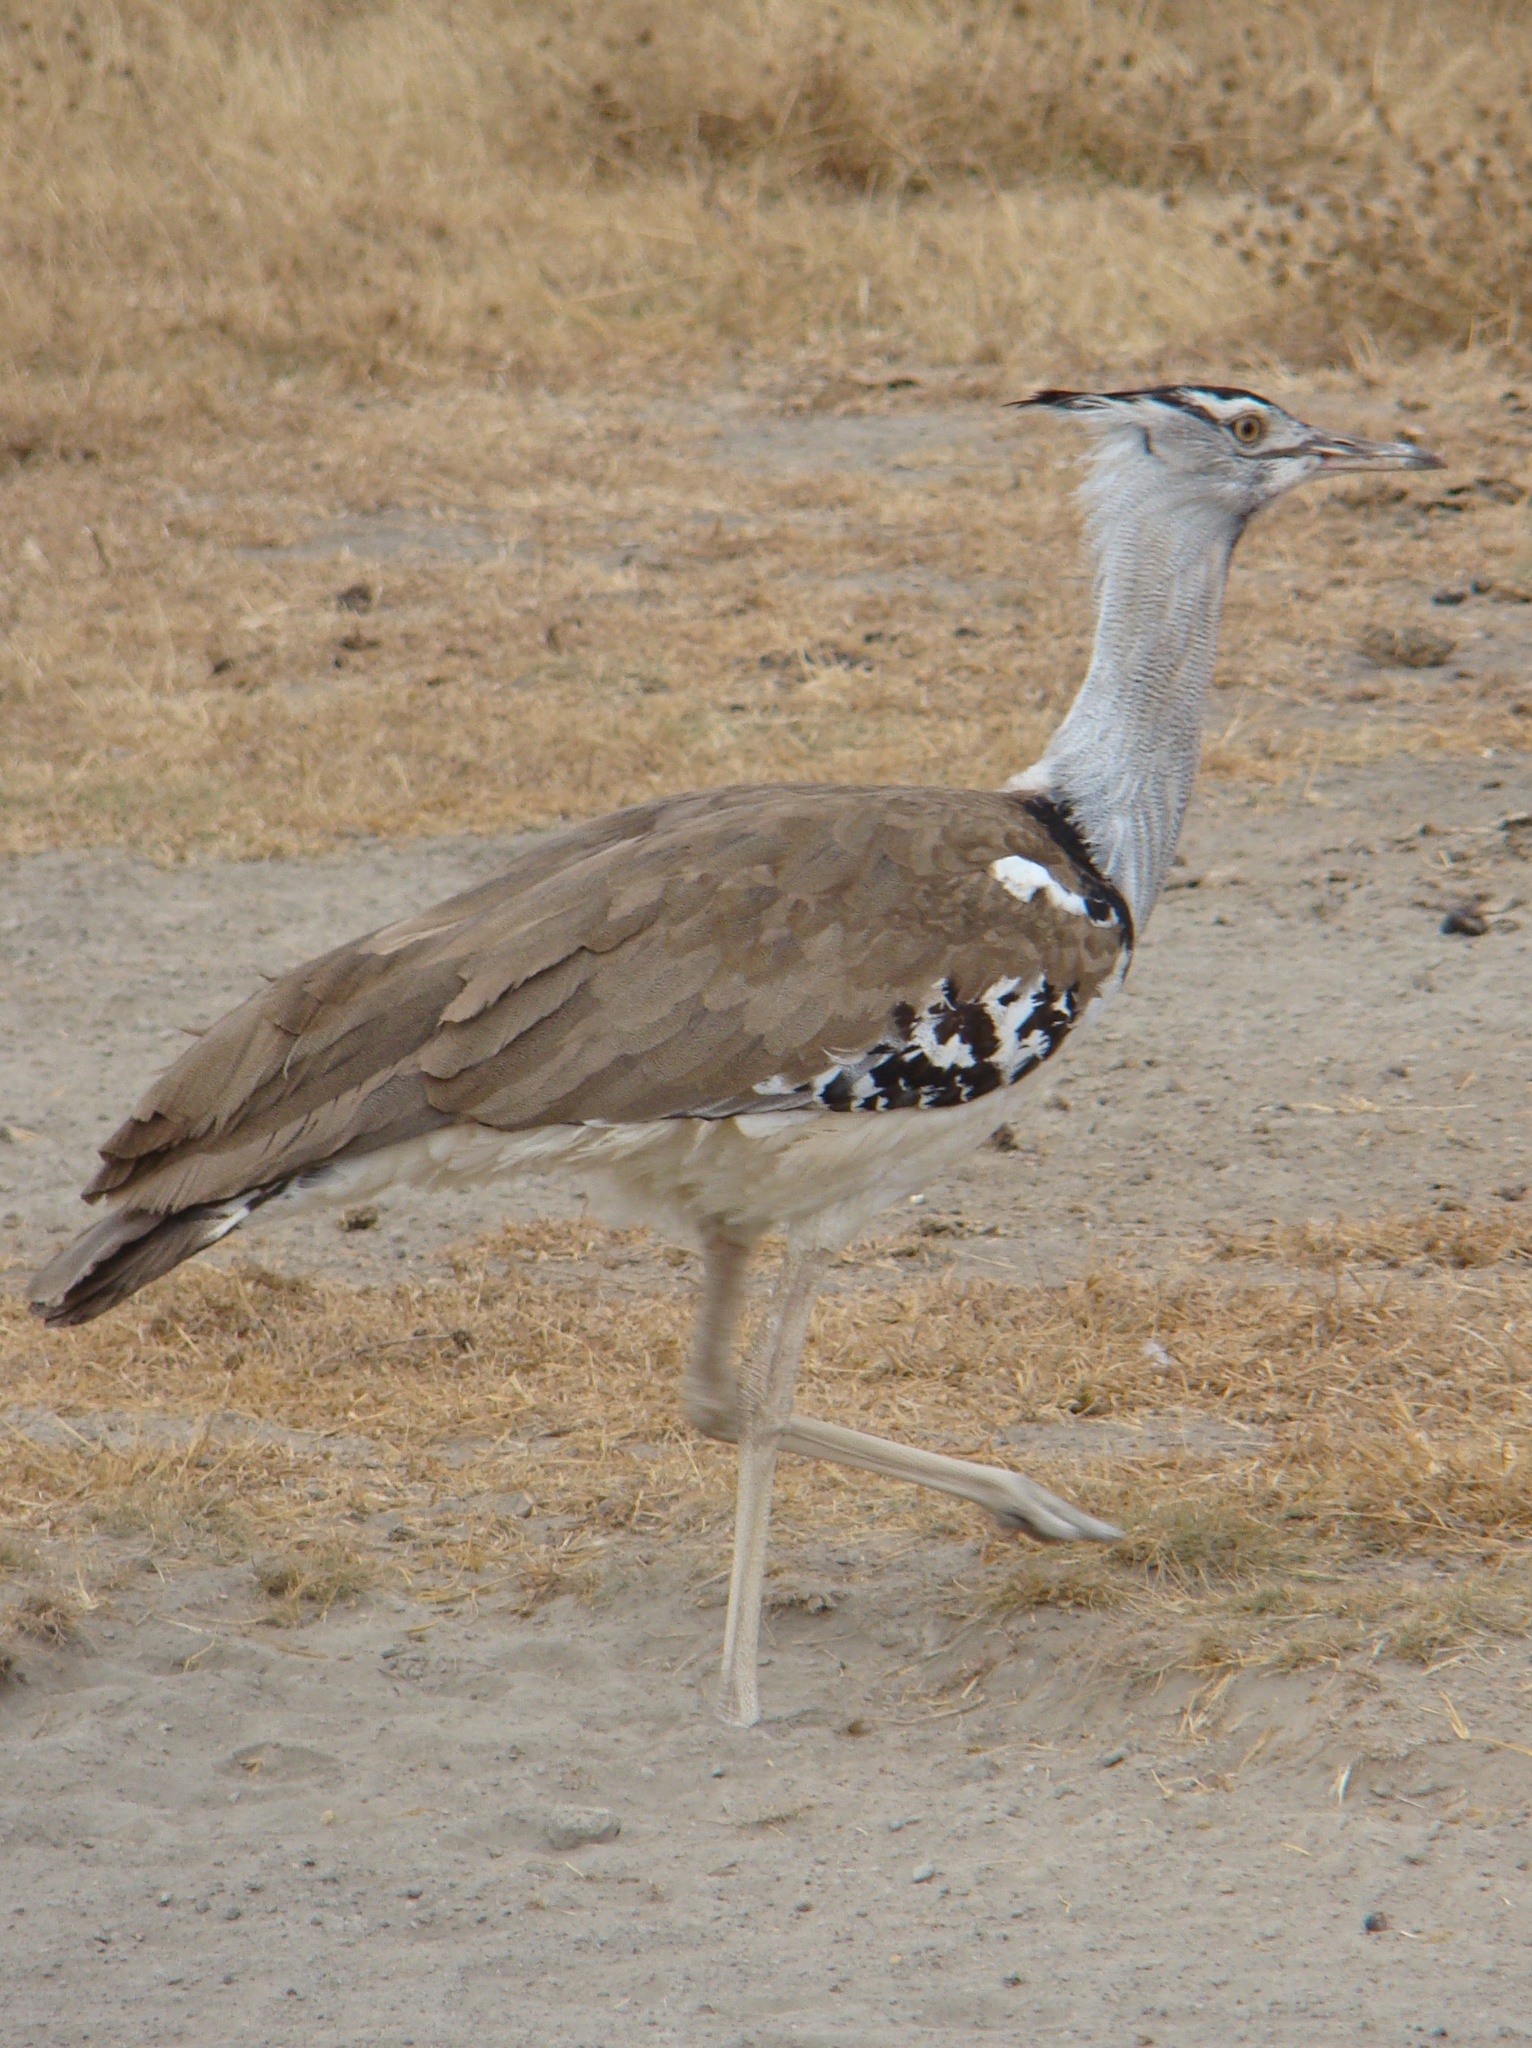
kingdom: Animalia
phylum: Chordata
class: Aves
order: Otidiformes
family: Otididae
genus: Ardeotis
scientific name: Ardeotis kori
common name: Kori bustard
